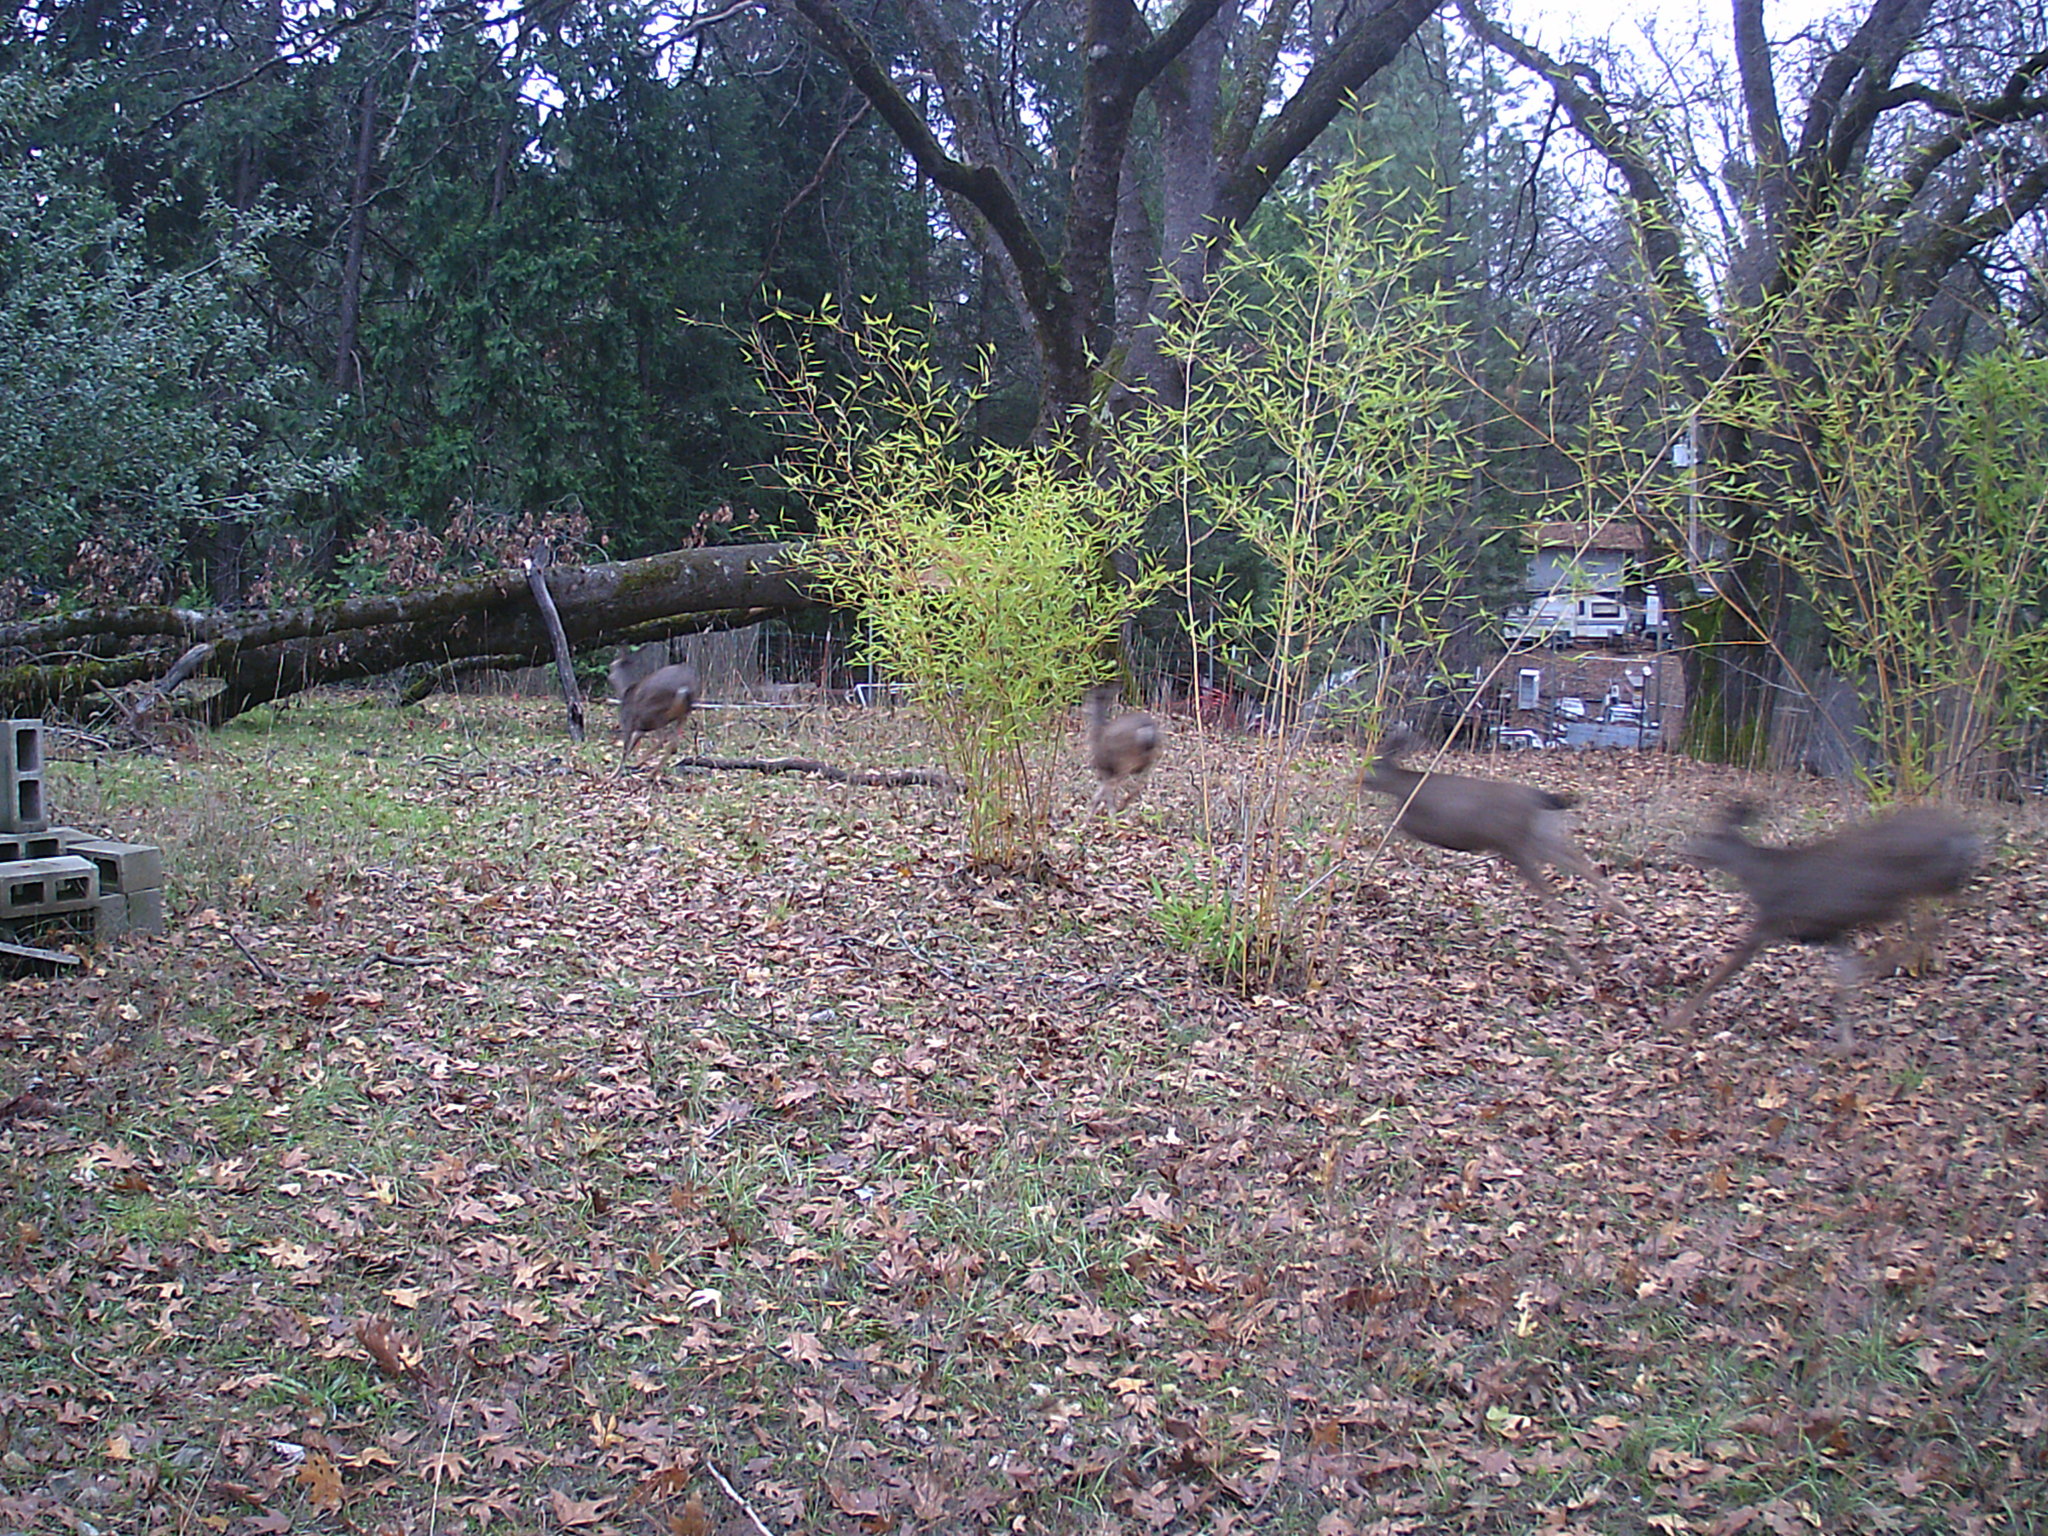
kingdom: Animalia
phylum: Chordata
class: Mammalia
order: Artiodactyla
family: Cervidae
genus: Odocoileus
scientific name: Odocoileus hemionus
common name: Mule deer
